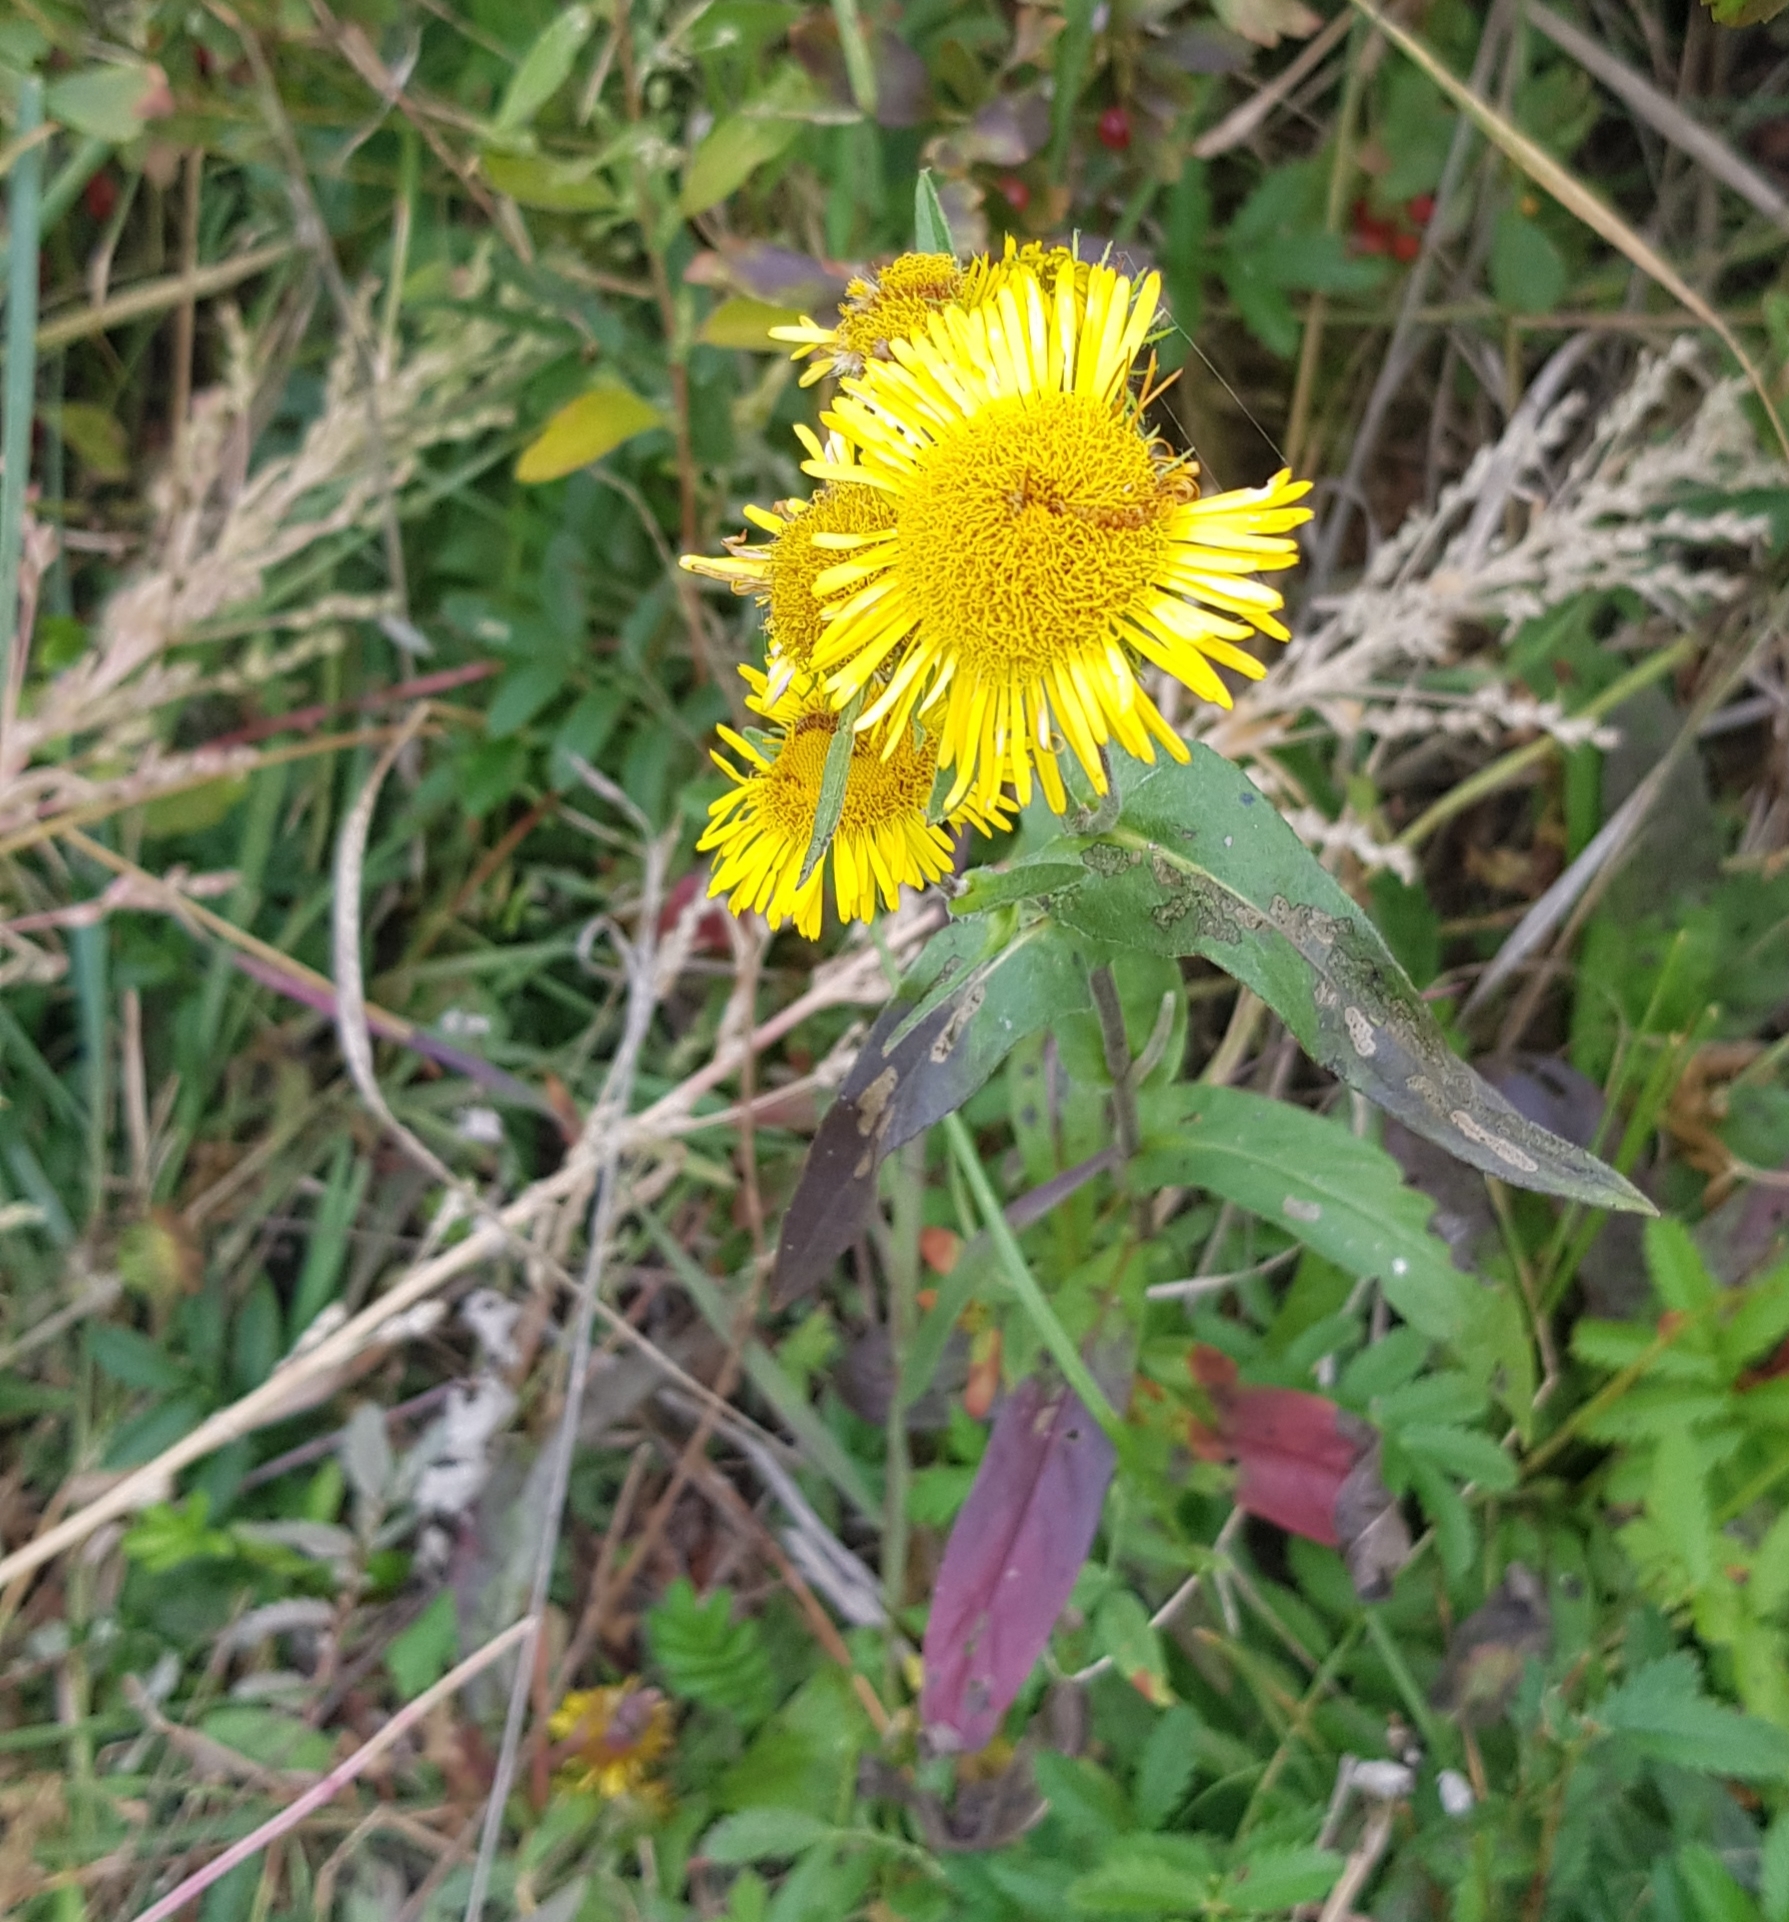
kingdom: Plantae
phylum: Tracheophyta
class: Magnoliopsida
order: Asterales
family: Asteraceae
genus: Pentanema
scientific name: Pentanema britannicum
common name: British elecampane
